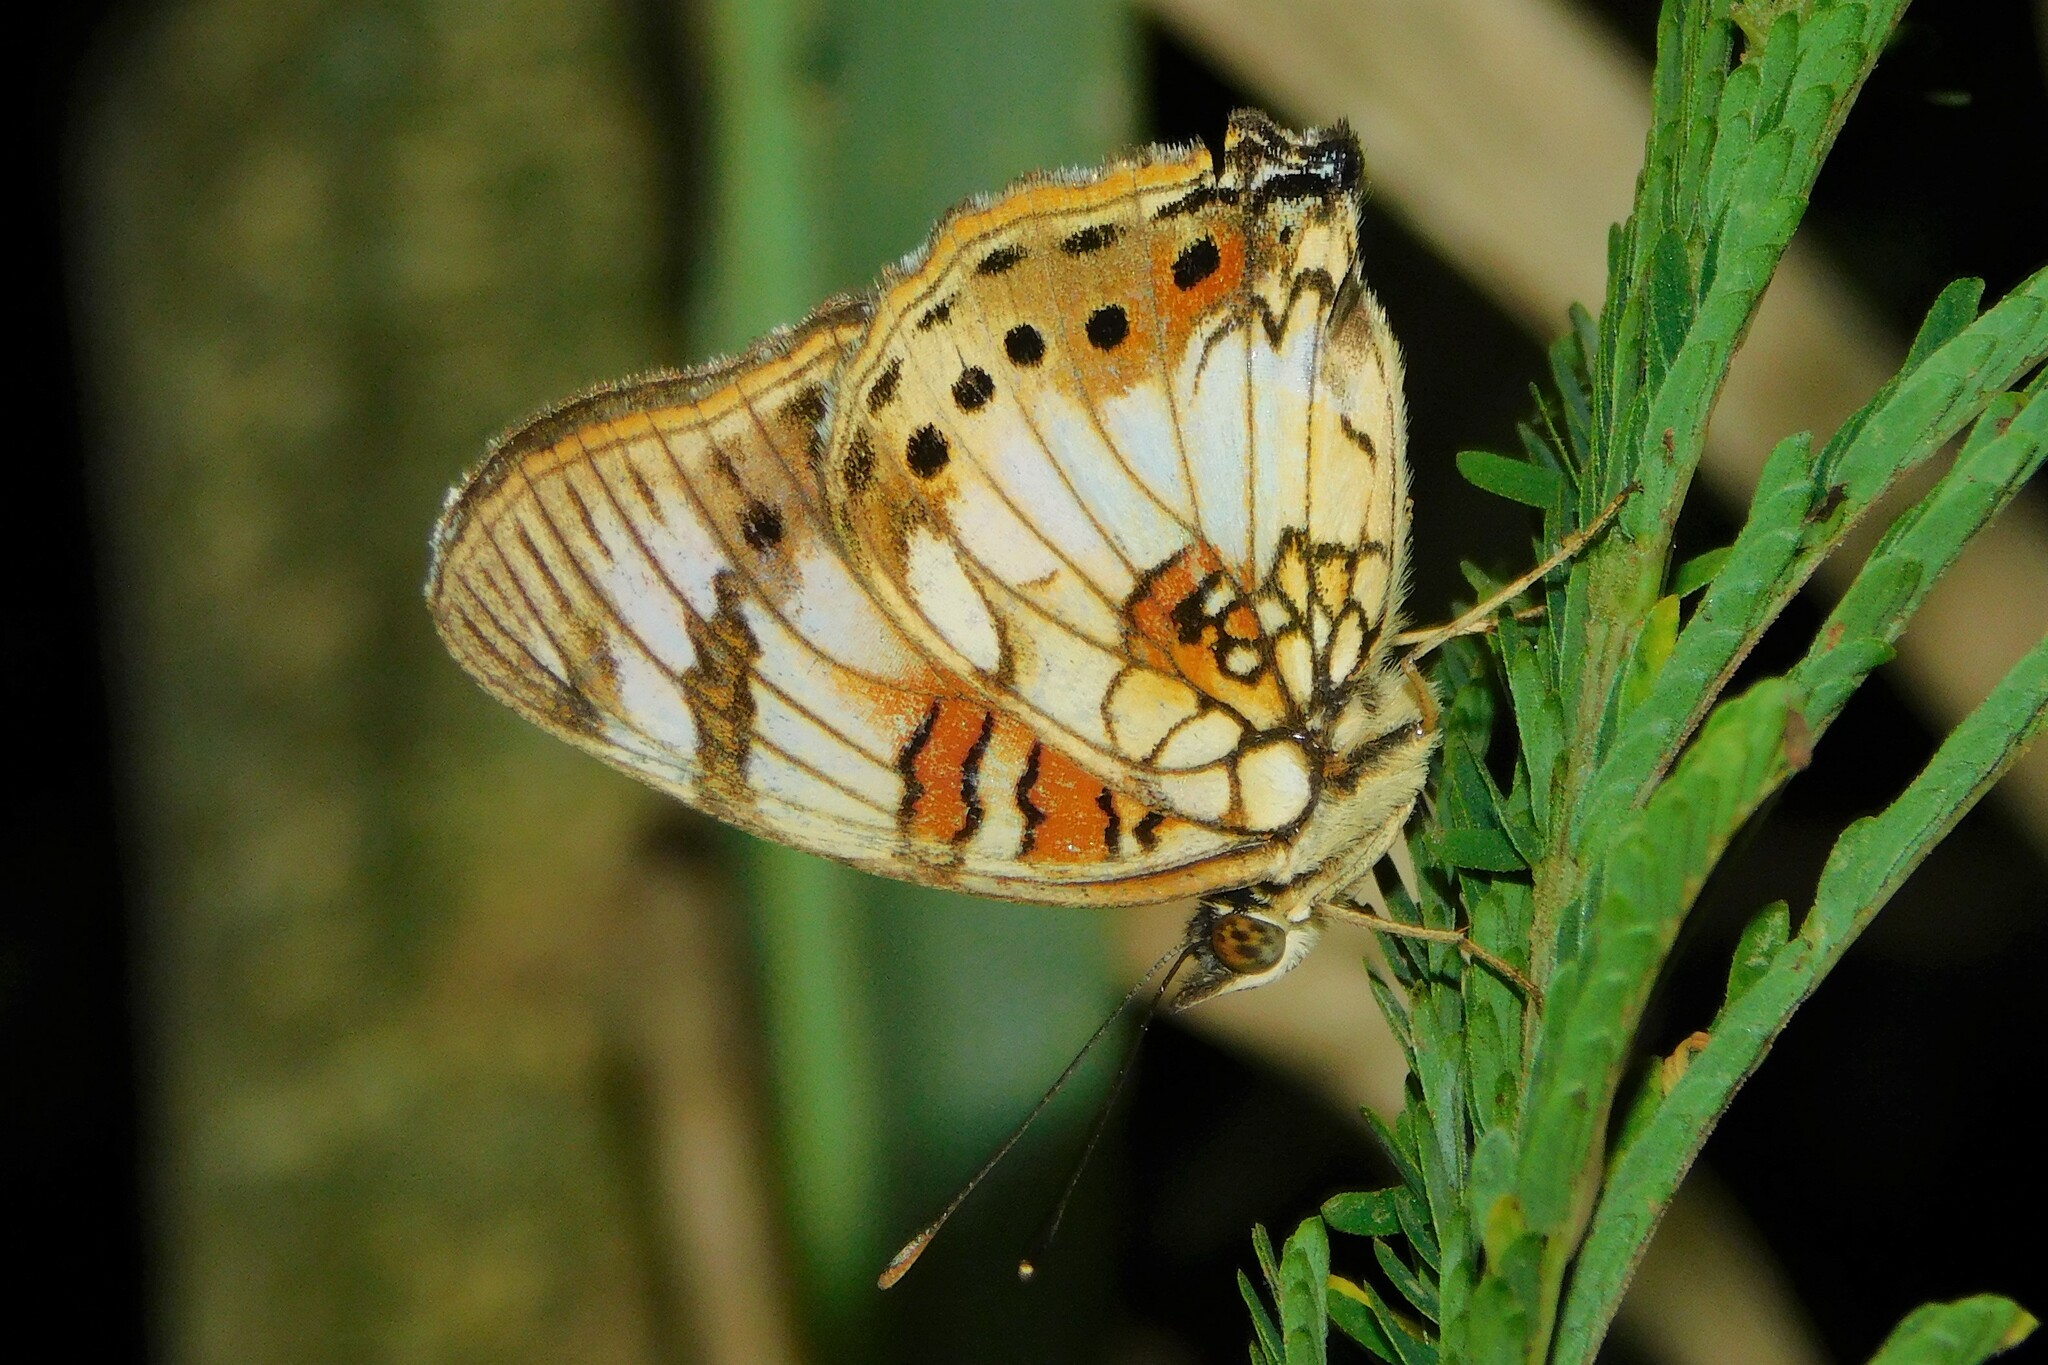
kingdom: Animalia
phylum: Arthropoda
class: Insecta
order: Lepidoptera
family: Nymphalidae
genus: Junonia
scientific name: Junonia sophia
